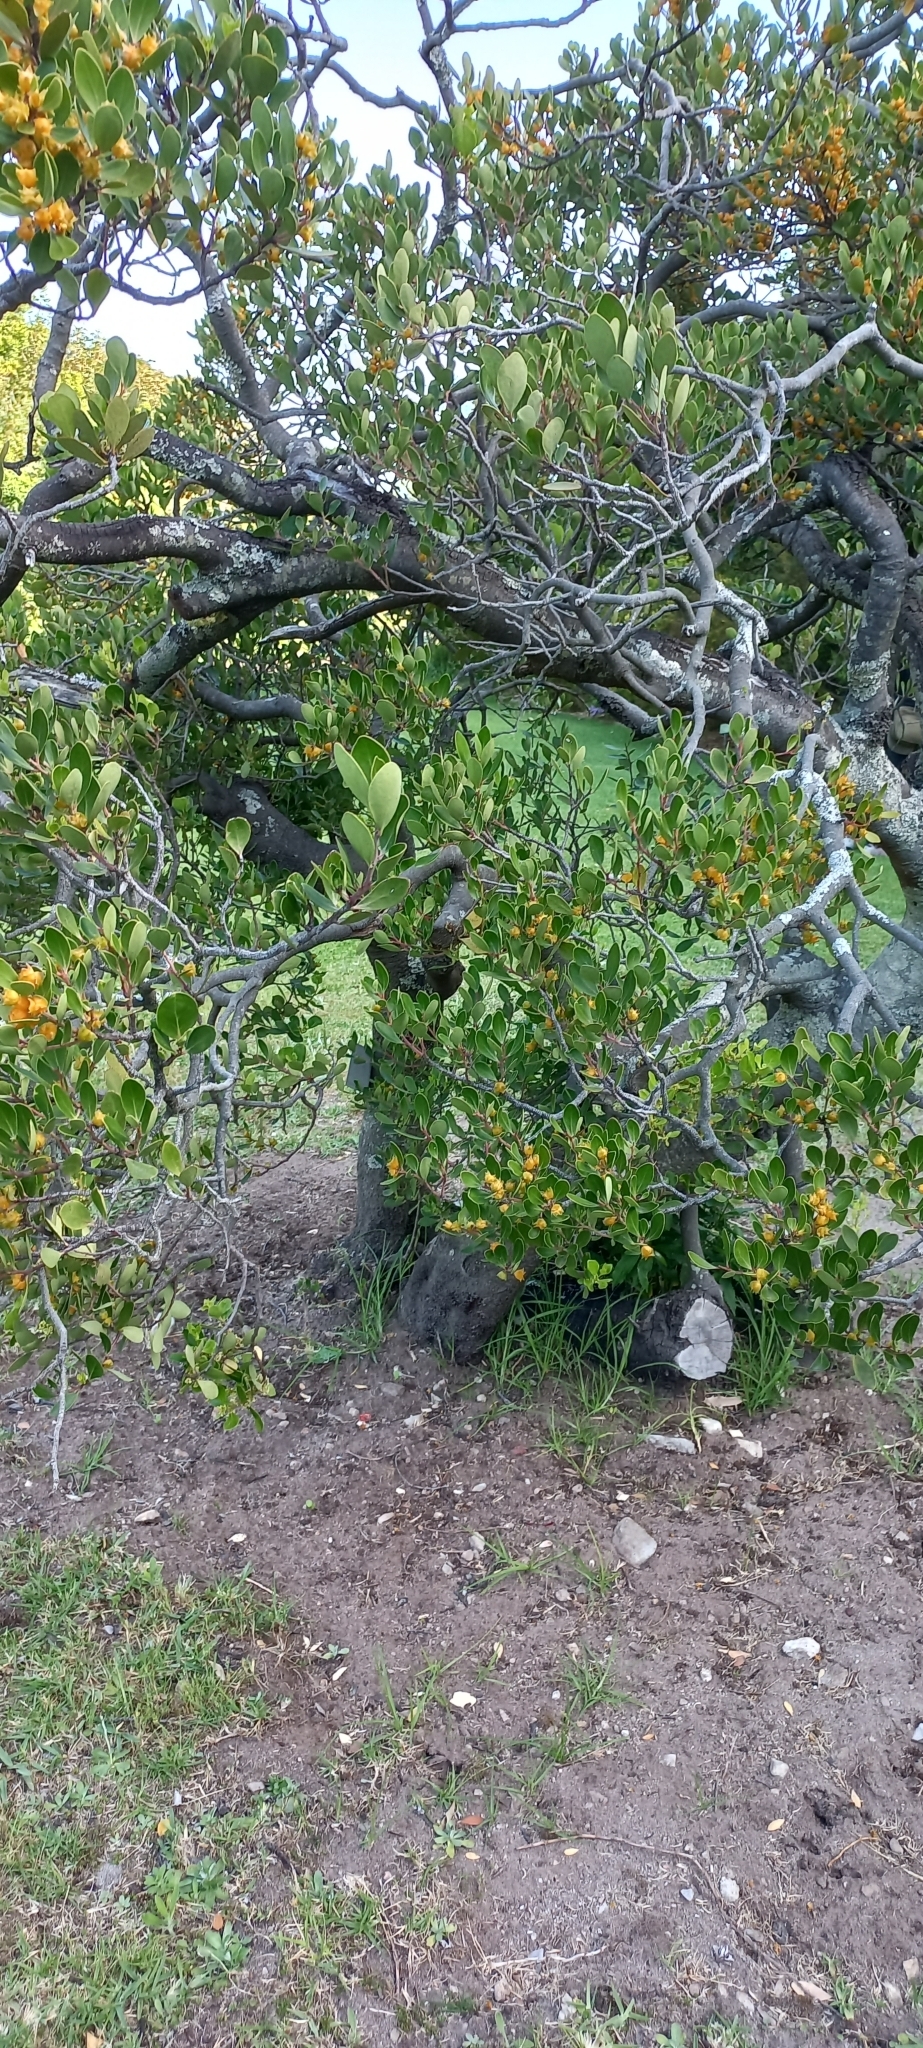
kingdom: Plantae
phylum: Tracheophyta
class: Magnoliopsida
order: Celastrales
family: Celastraceae
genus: Pterocelastrus
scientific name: Pterocelastrus tricuspidatus
